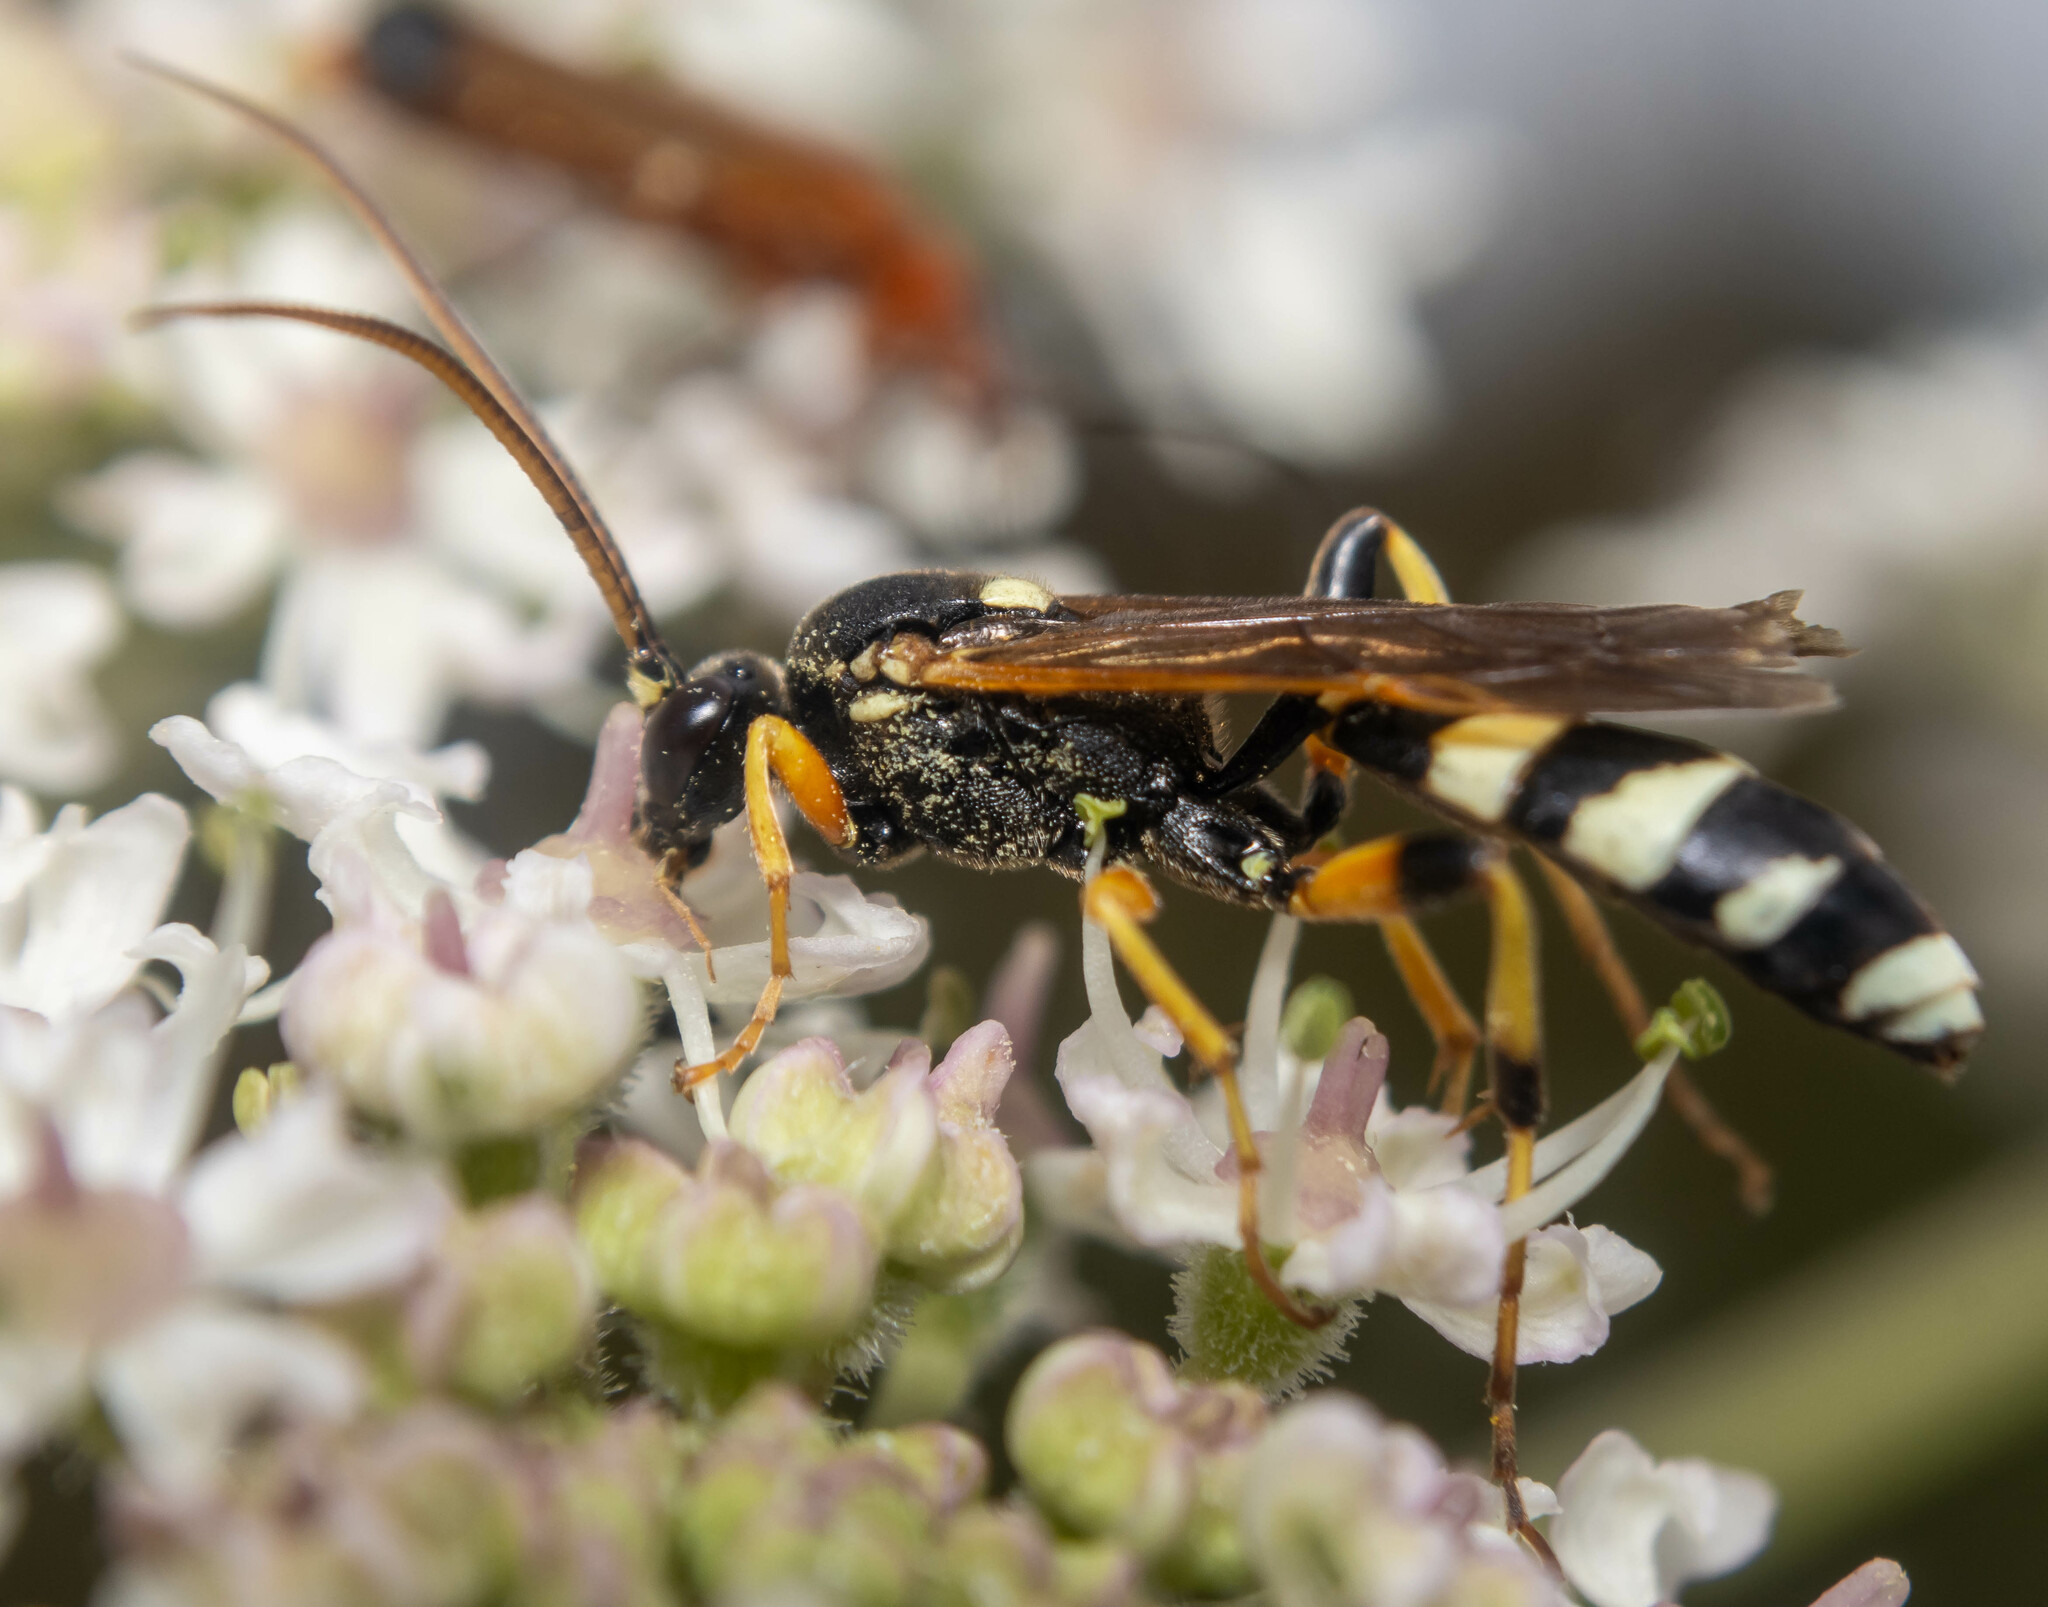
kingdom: Animalia
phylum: Arthropoda
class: Insecta
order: Hymenoptera
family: Ichneumonidae
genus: Ichneumon
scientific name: Ichneumon sarcitorius
